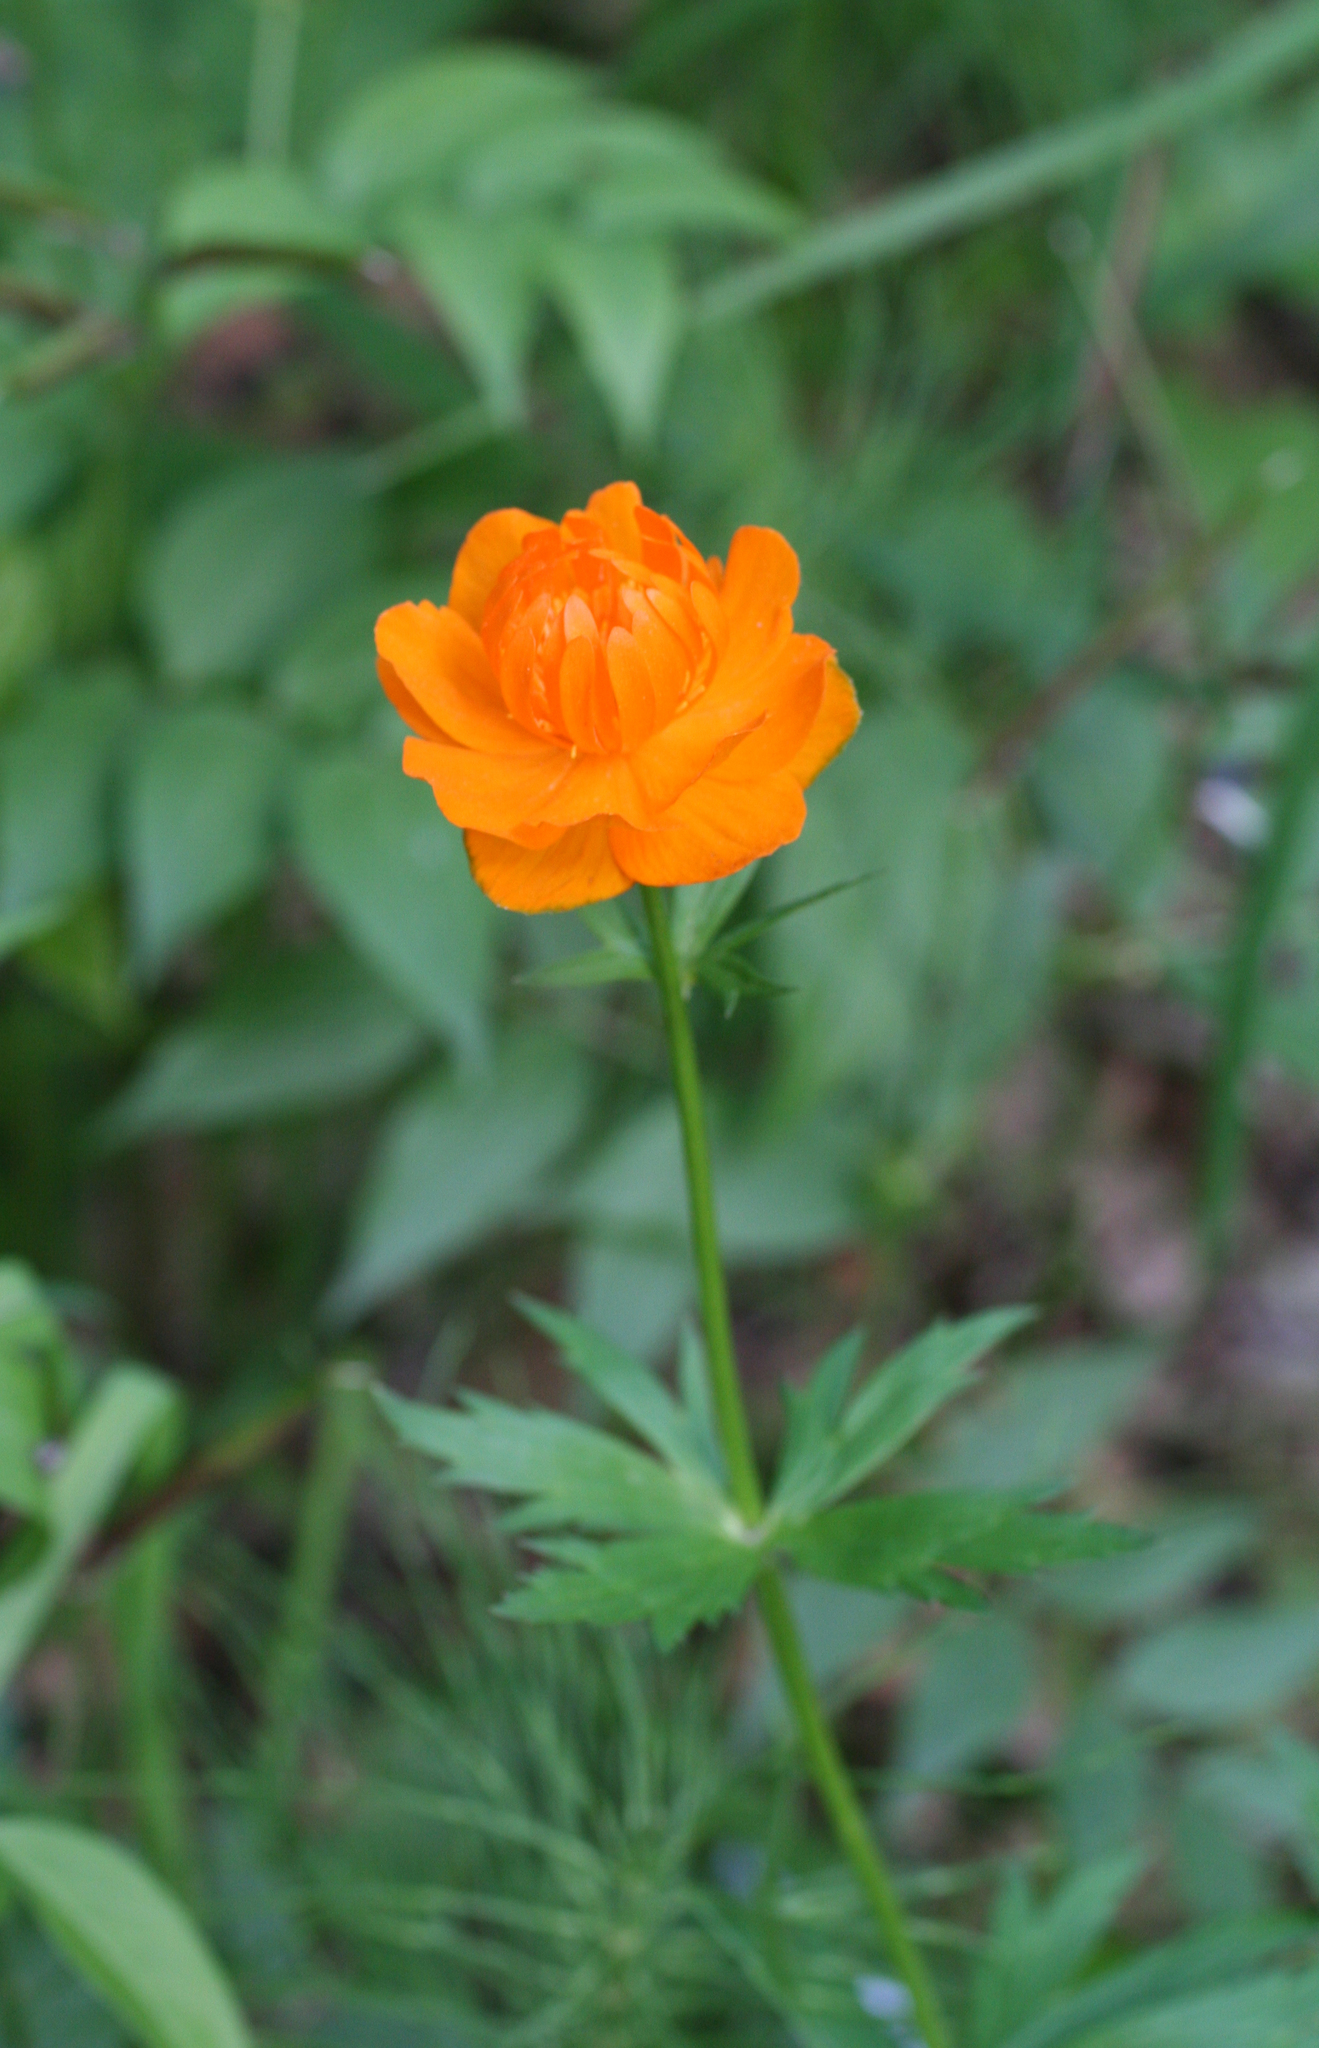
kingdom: Plantae
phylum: Tracheophyta
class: Magnoliopsida
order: Ranunculales
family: Ranunculaceae
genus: Trollius
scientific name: Trollius asiaticus
